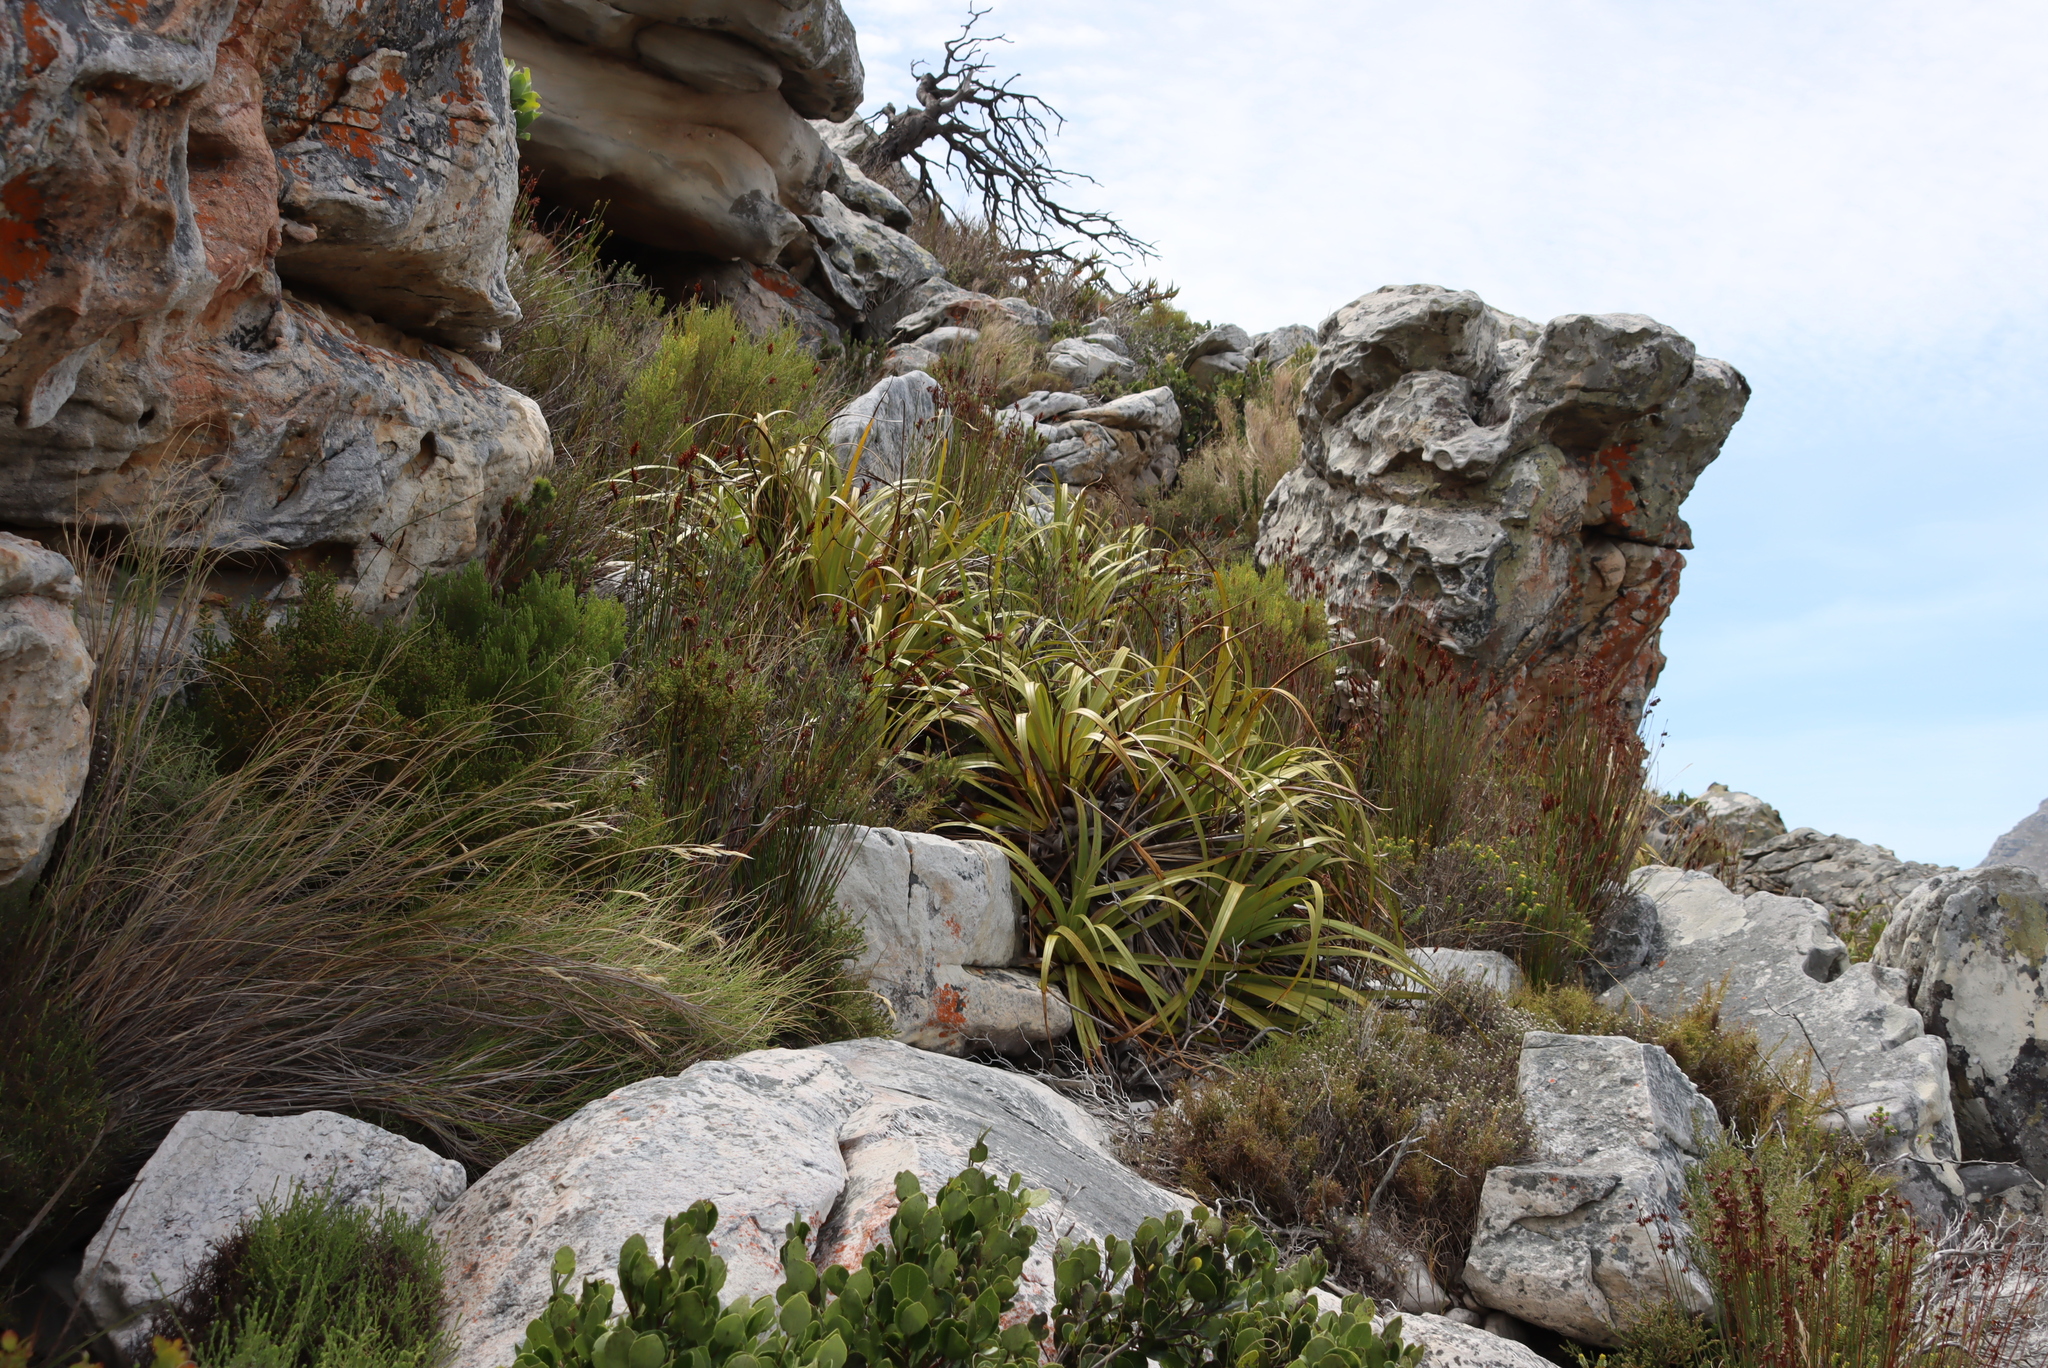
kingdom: Plantae
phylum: Tracheophyta
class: Liliopsida
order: Poales
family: Cyperaceae
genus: Tetraria
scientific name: Tetraria thermalis
